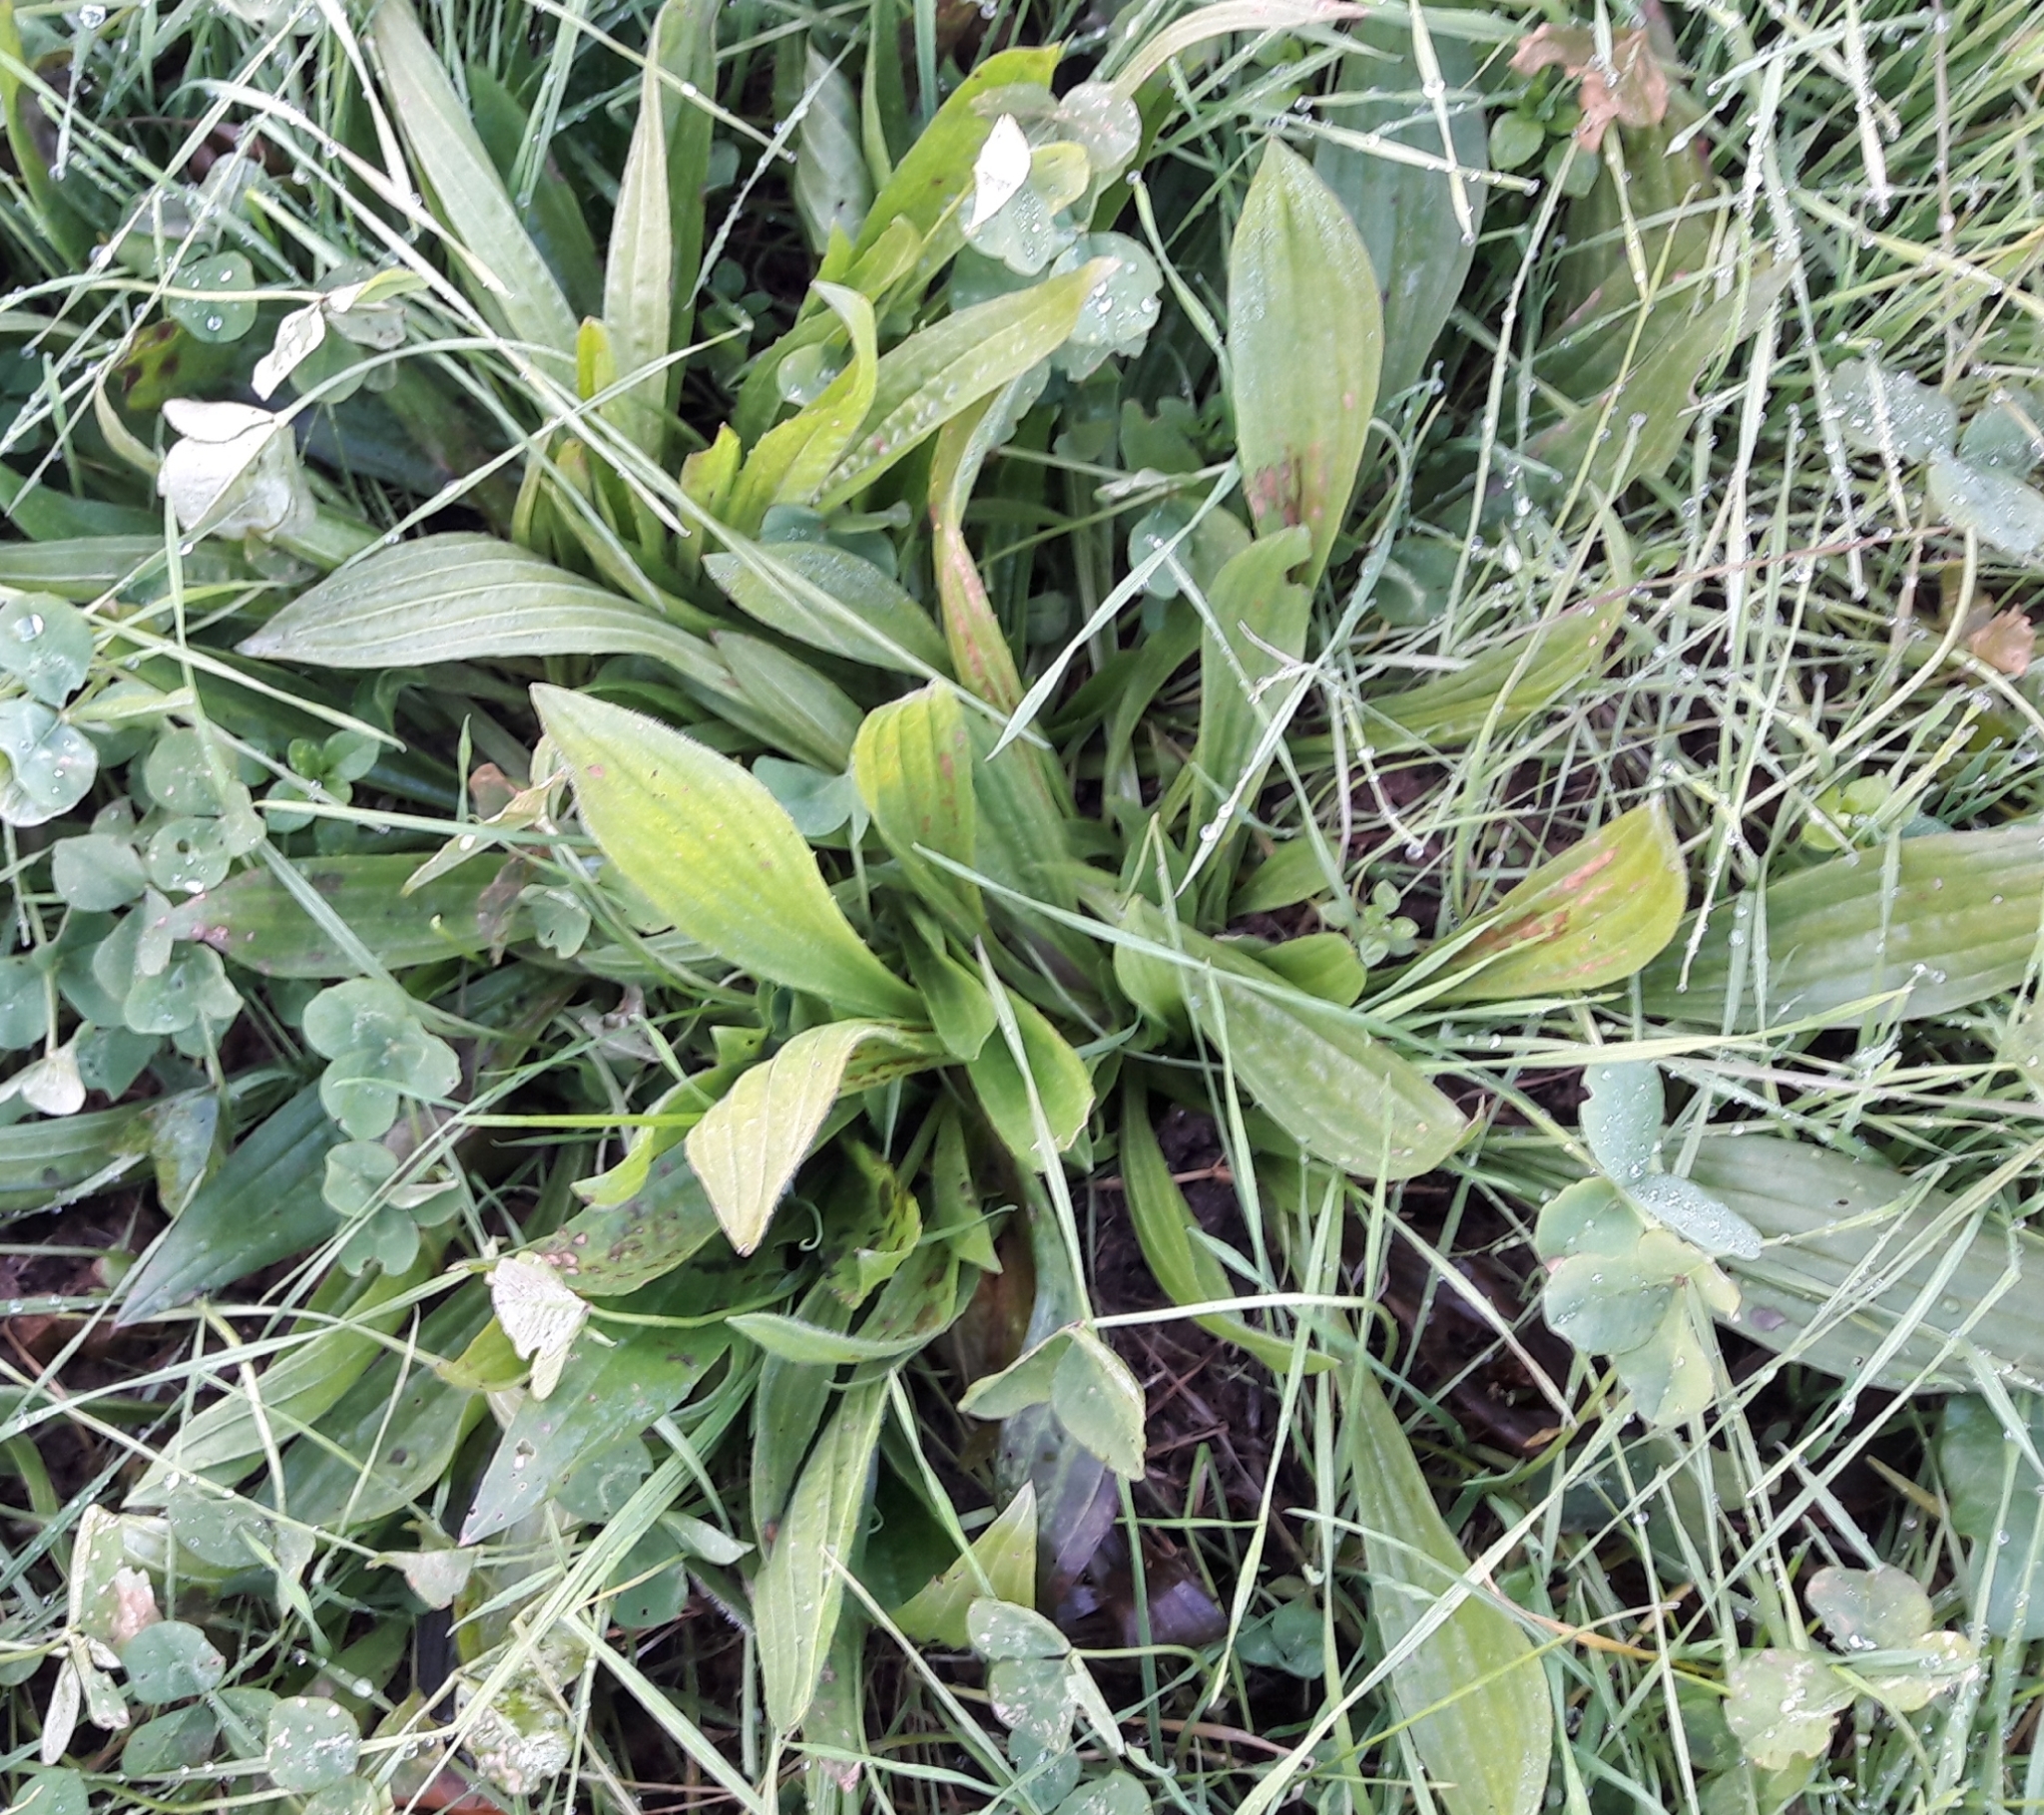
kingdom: Plantae
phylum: Tracheophyta
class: Magnoliopsida
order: Lamiales
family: Plantaginaceae
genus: Plantago
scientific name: Plantago lanceolata
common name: Ribwort plantain
